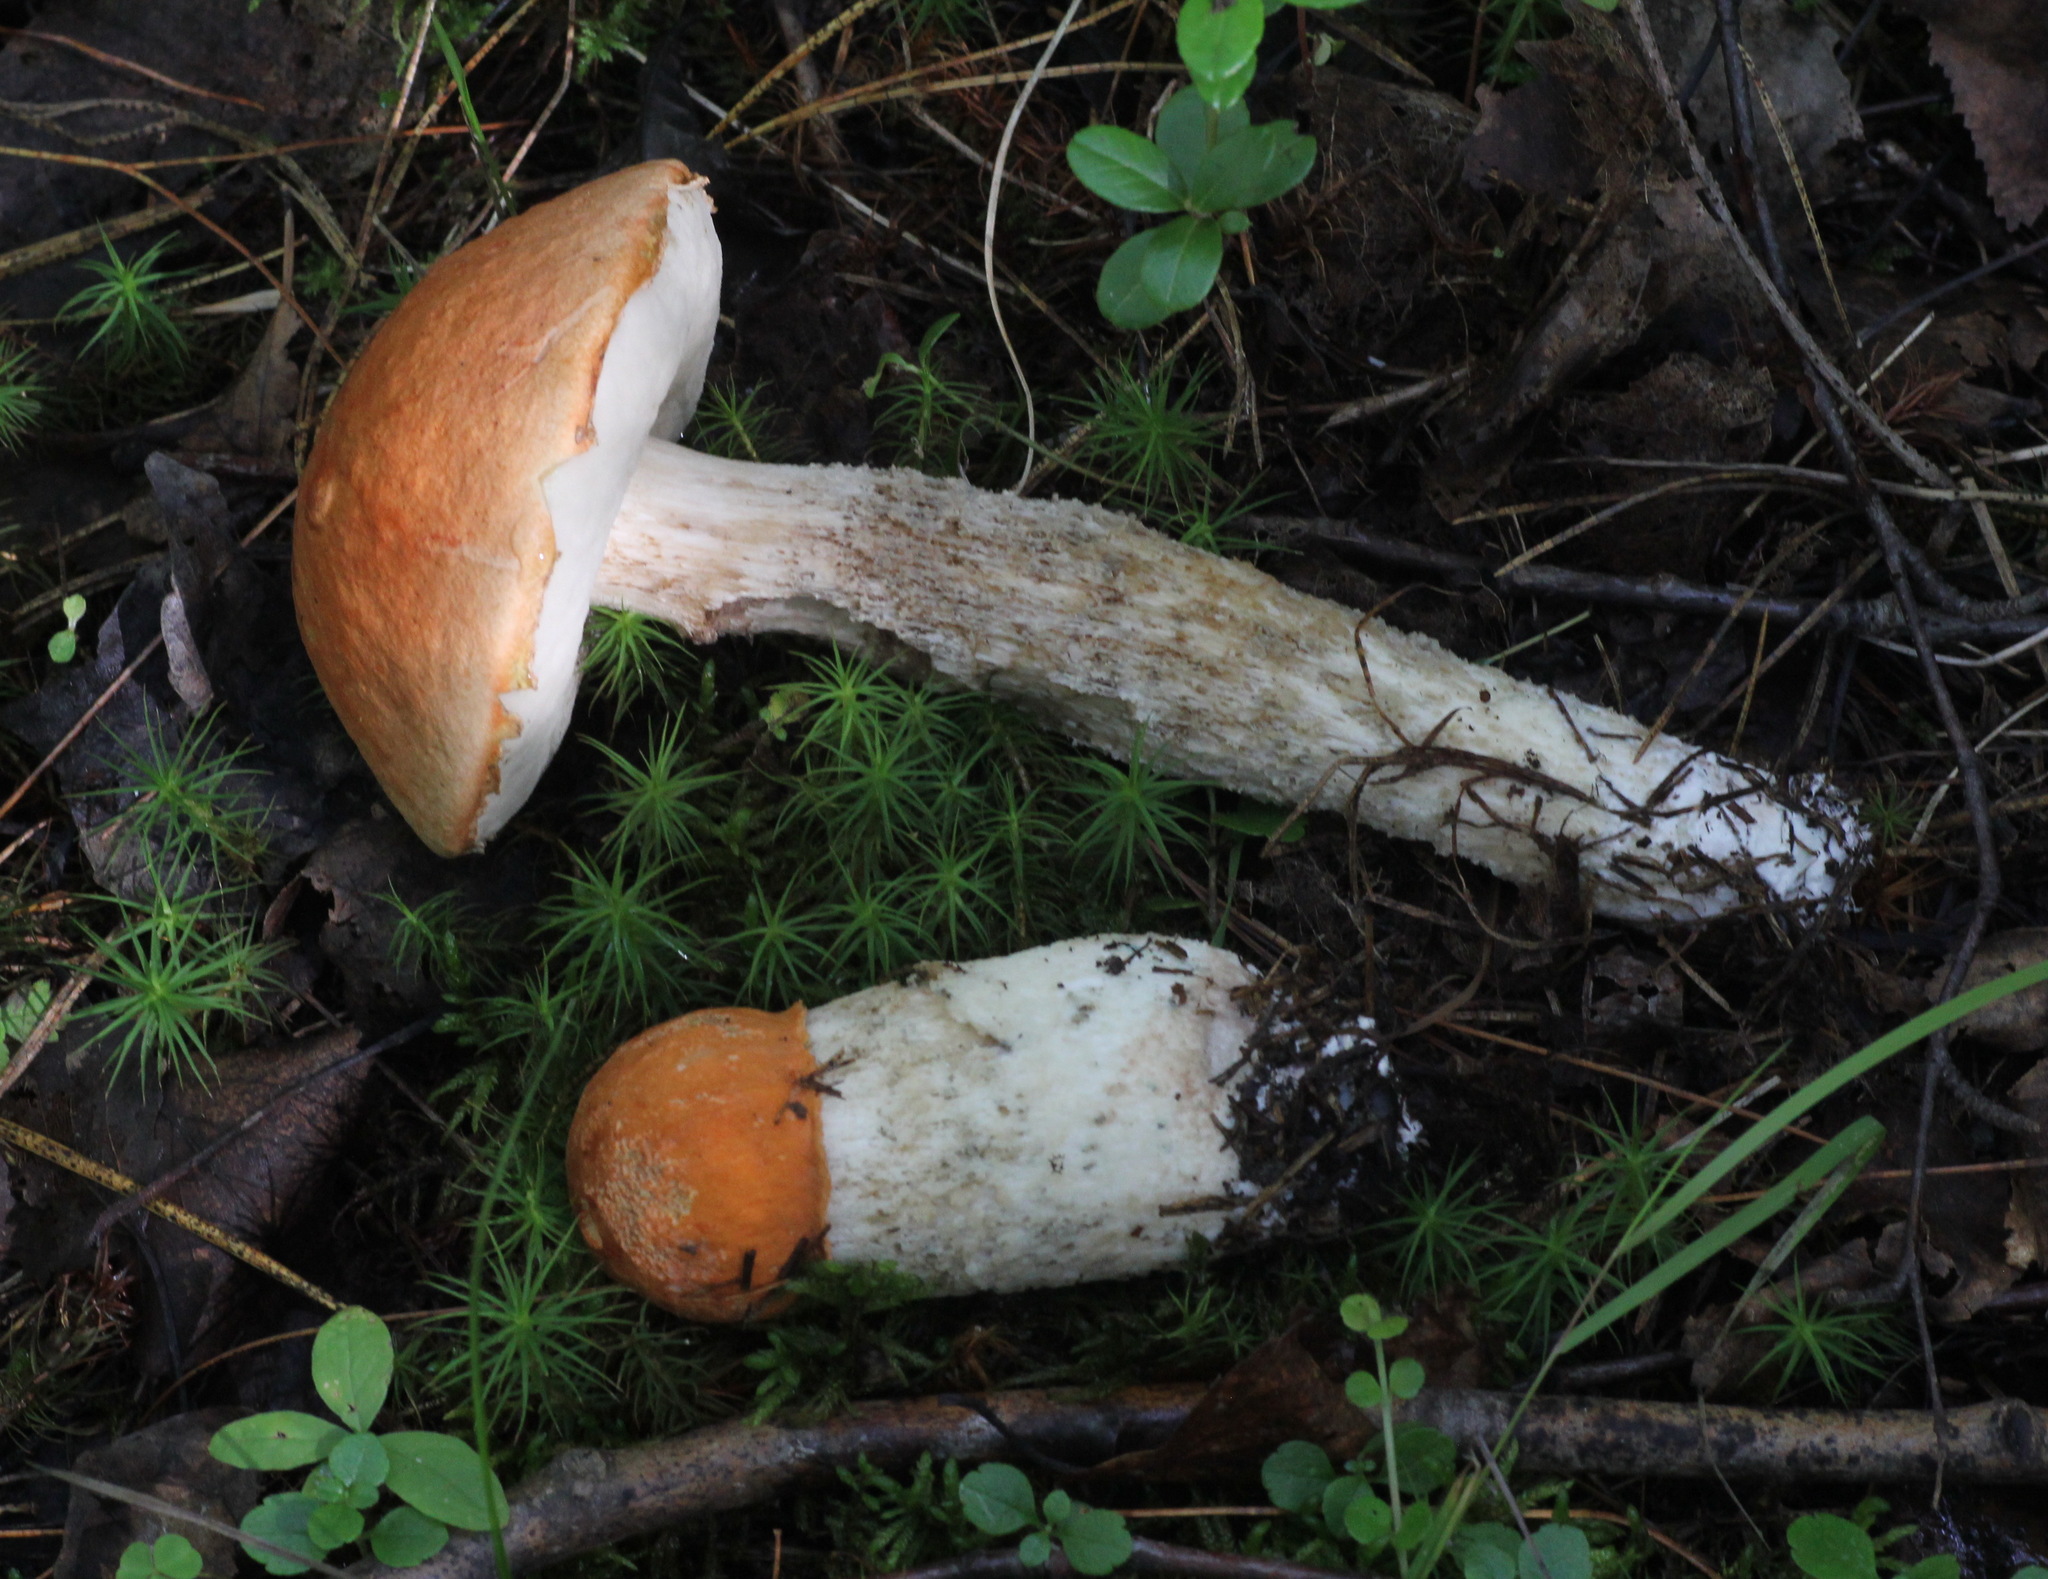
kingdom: Fungi
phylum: Basidiomycota
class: Agaricomycetes
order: Boletales
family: Boletaceae
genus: Leccinum
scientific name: Leccinum albostipitatum
